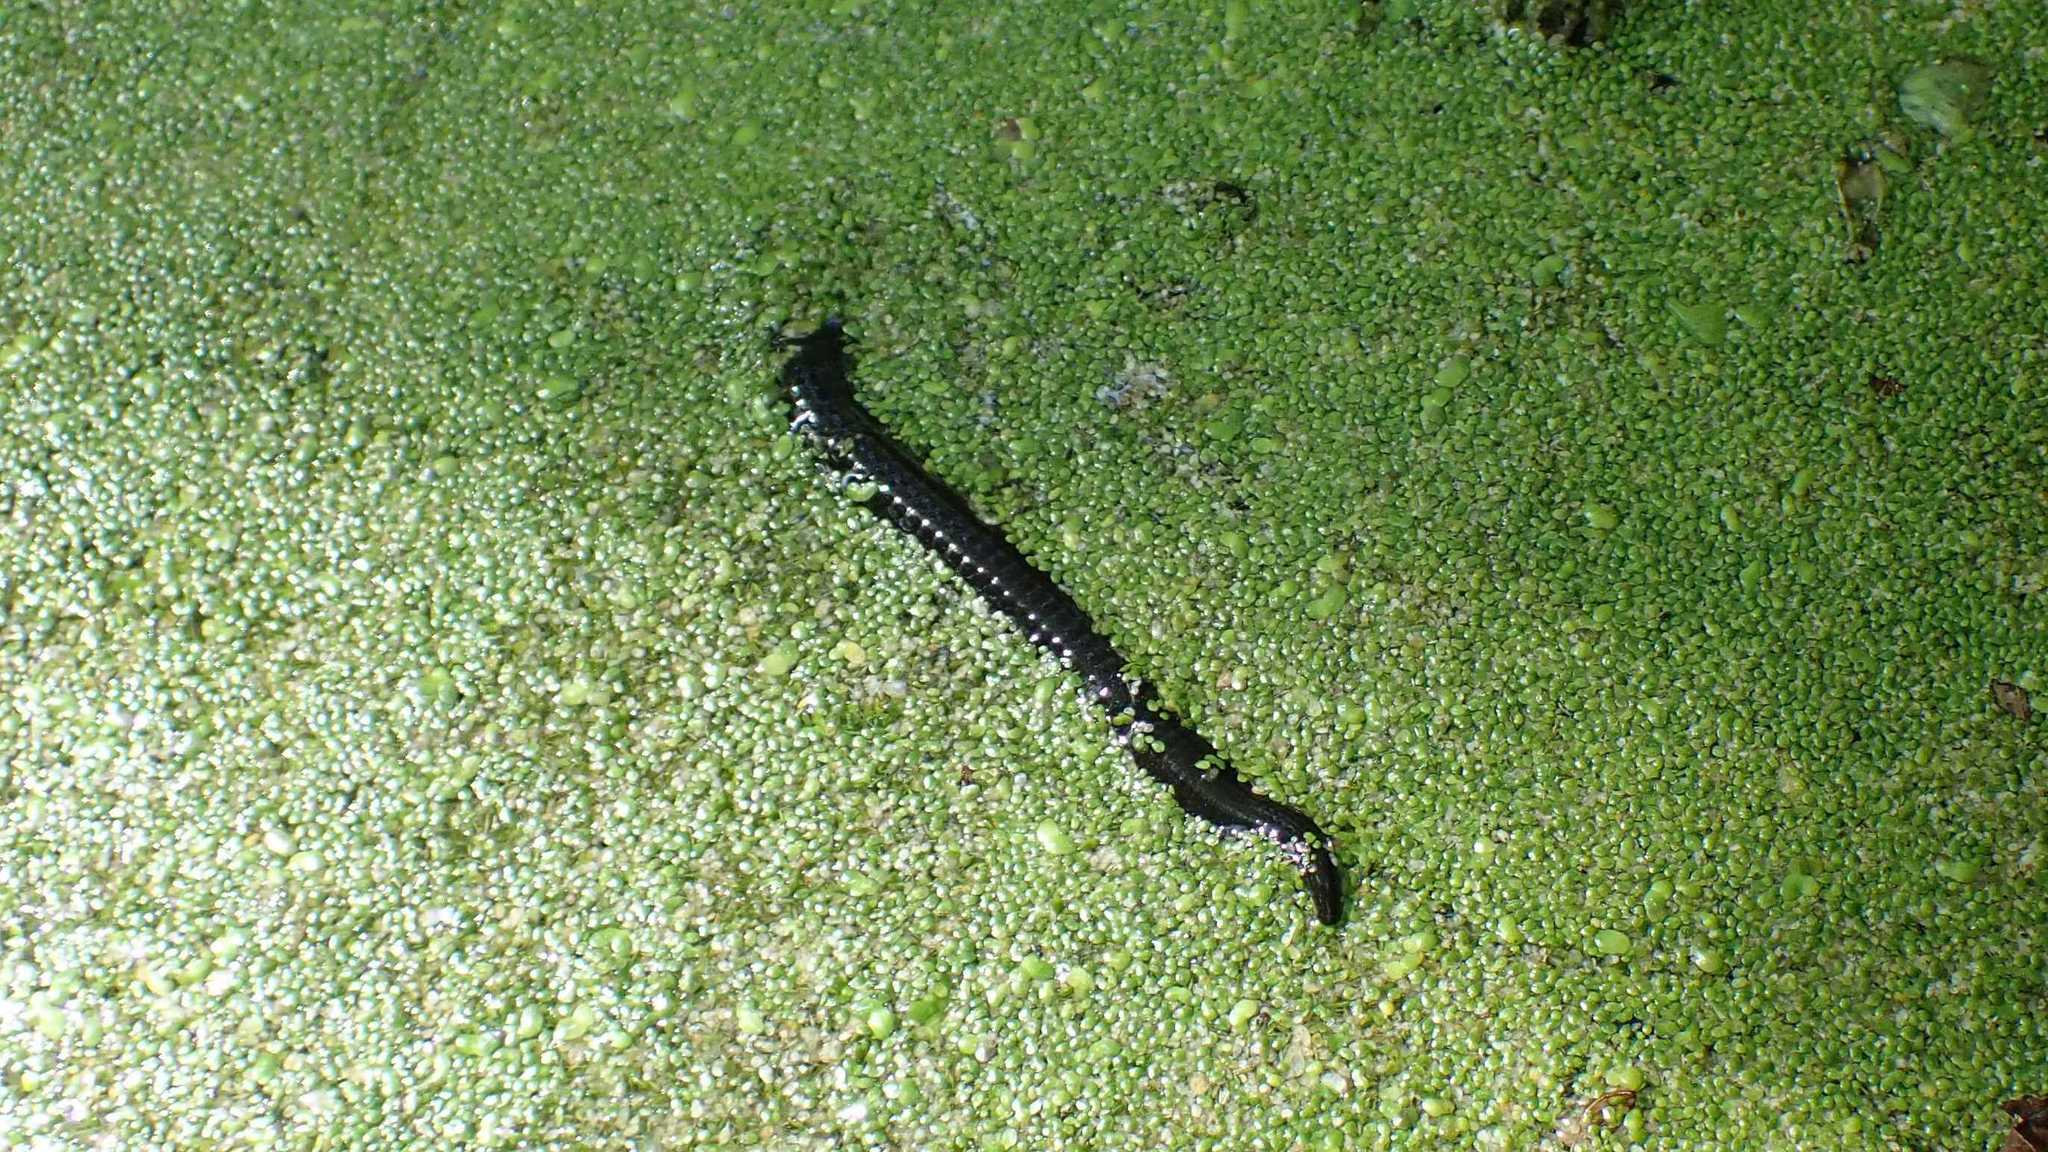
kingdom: Animalia
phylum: Annelida
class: Clitellata
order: Arhynchobdellida
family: Haemopidae
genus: Haemopis
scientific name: Haemopis sanguisuga
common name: Horse leech
